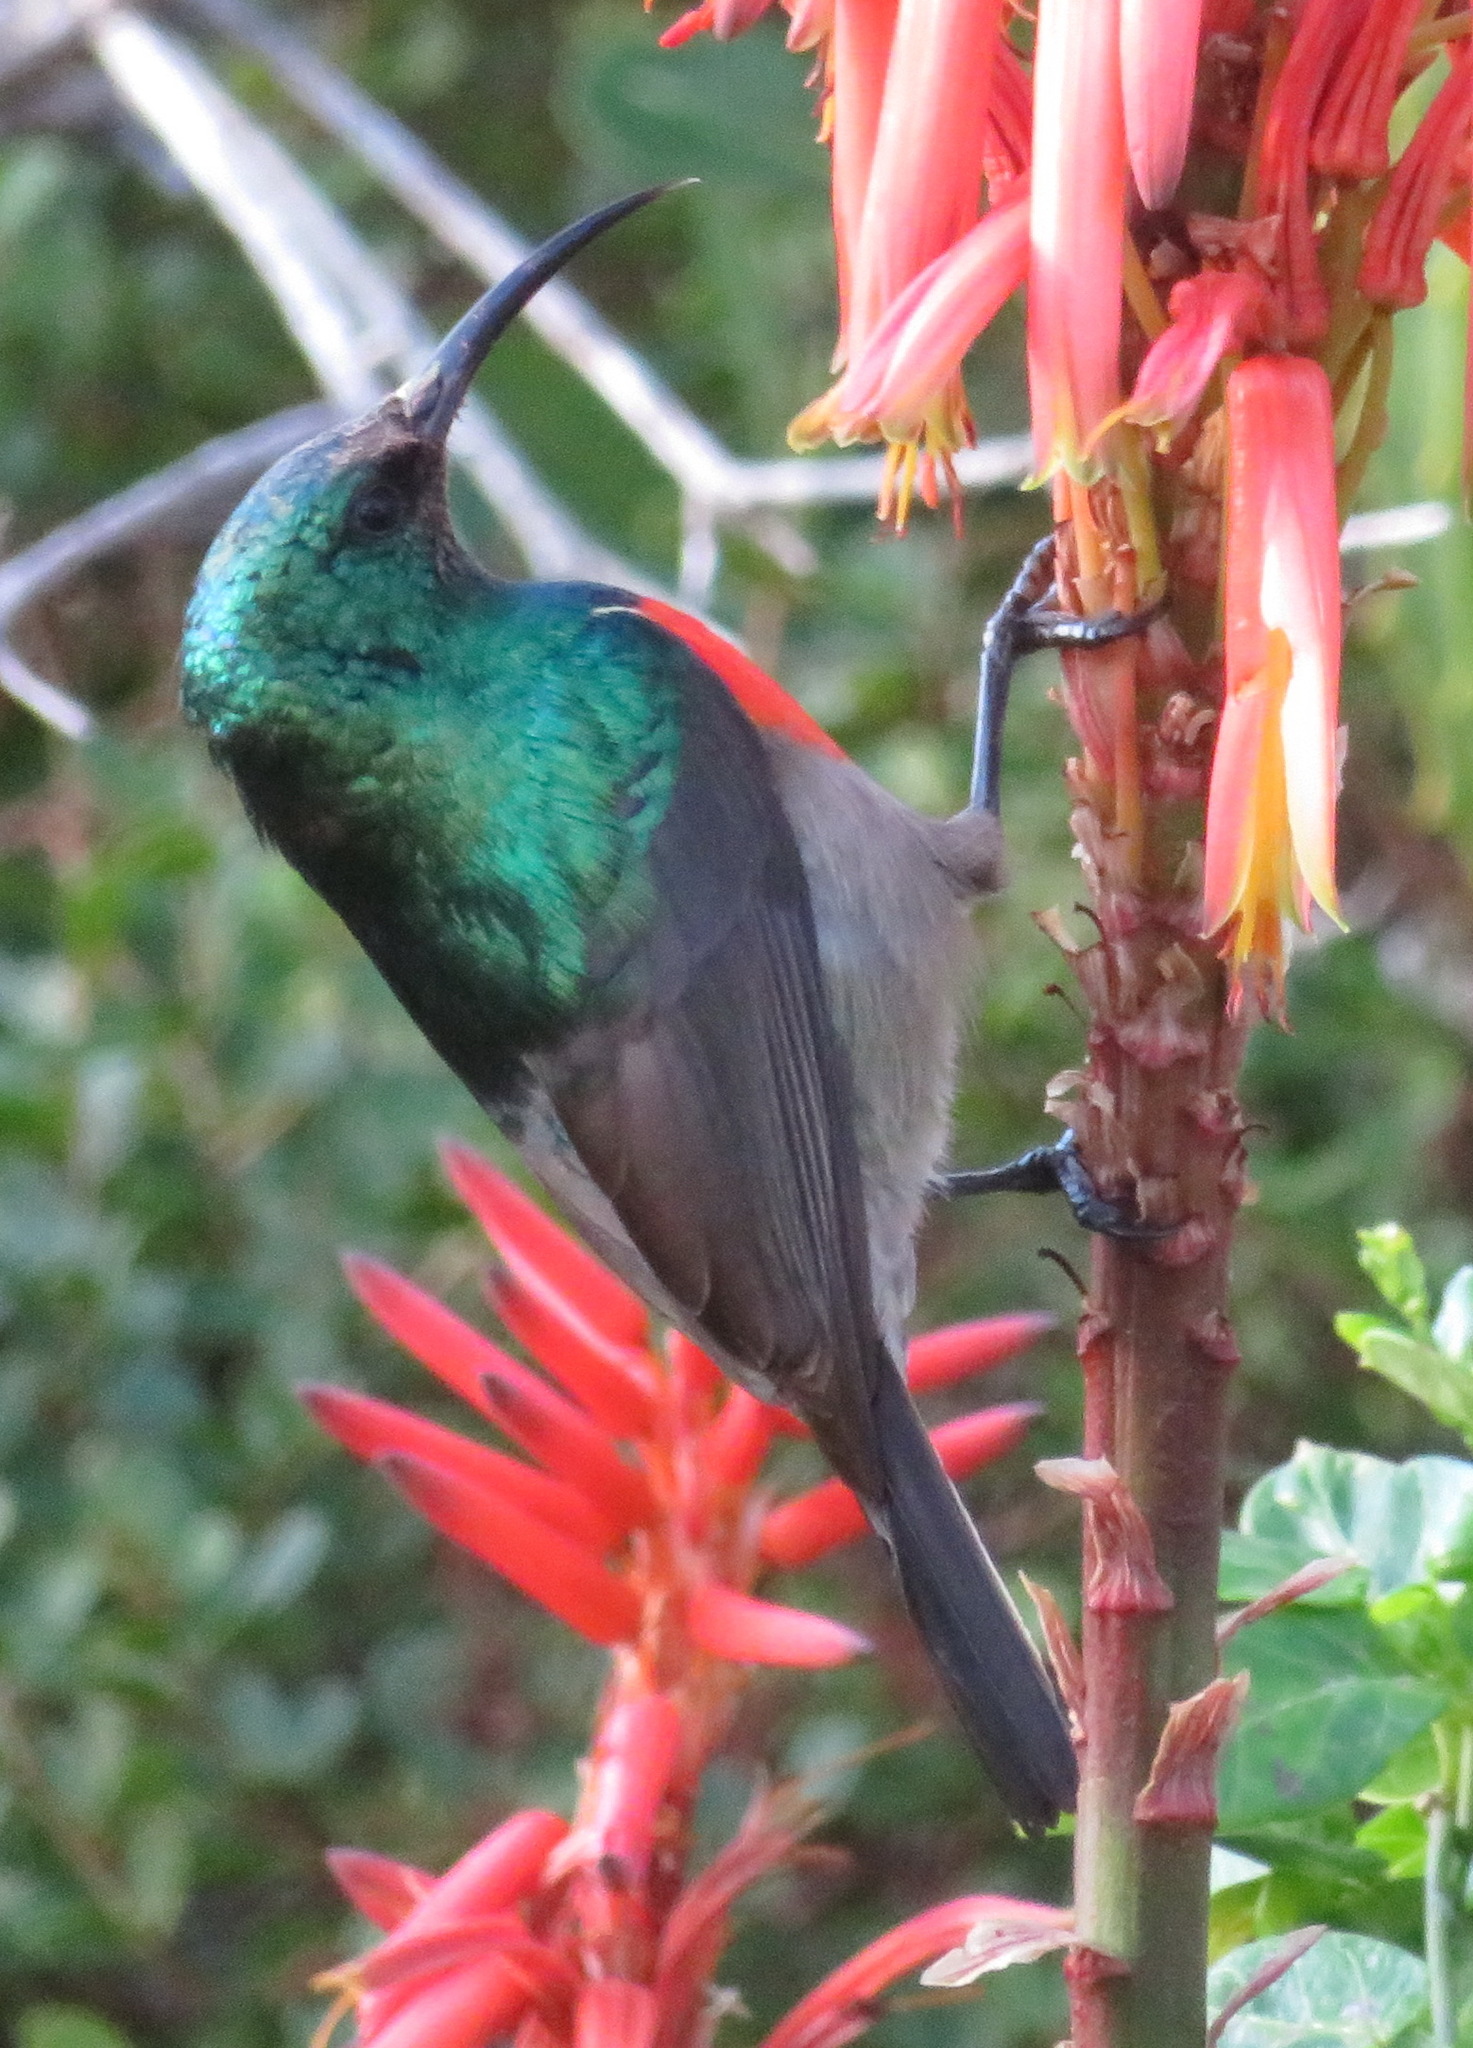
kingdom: Animalia
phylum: Chordata
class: Aves
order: Passeriformes
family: Nectariniidae
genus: Cinnyris
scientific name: Cinnyris afer
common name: Greater double-collared sunbird
